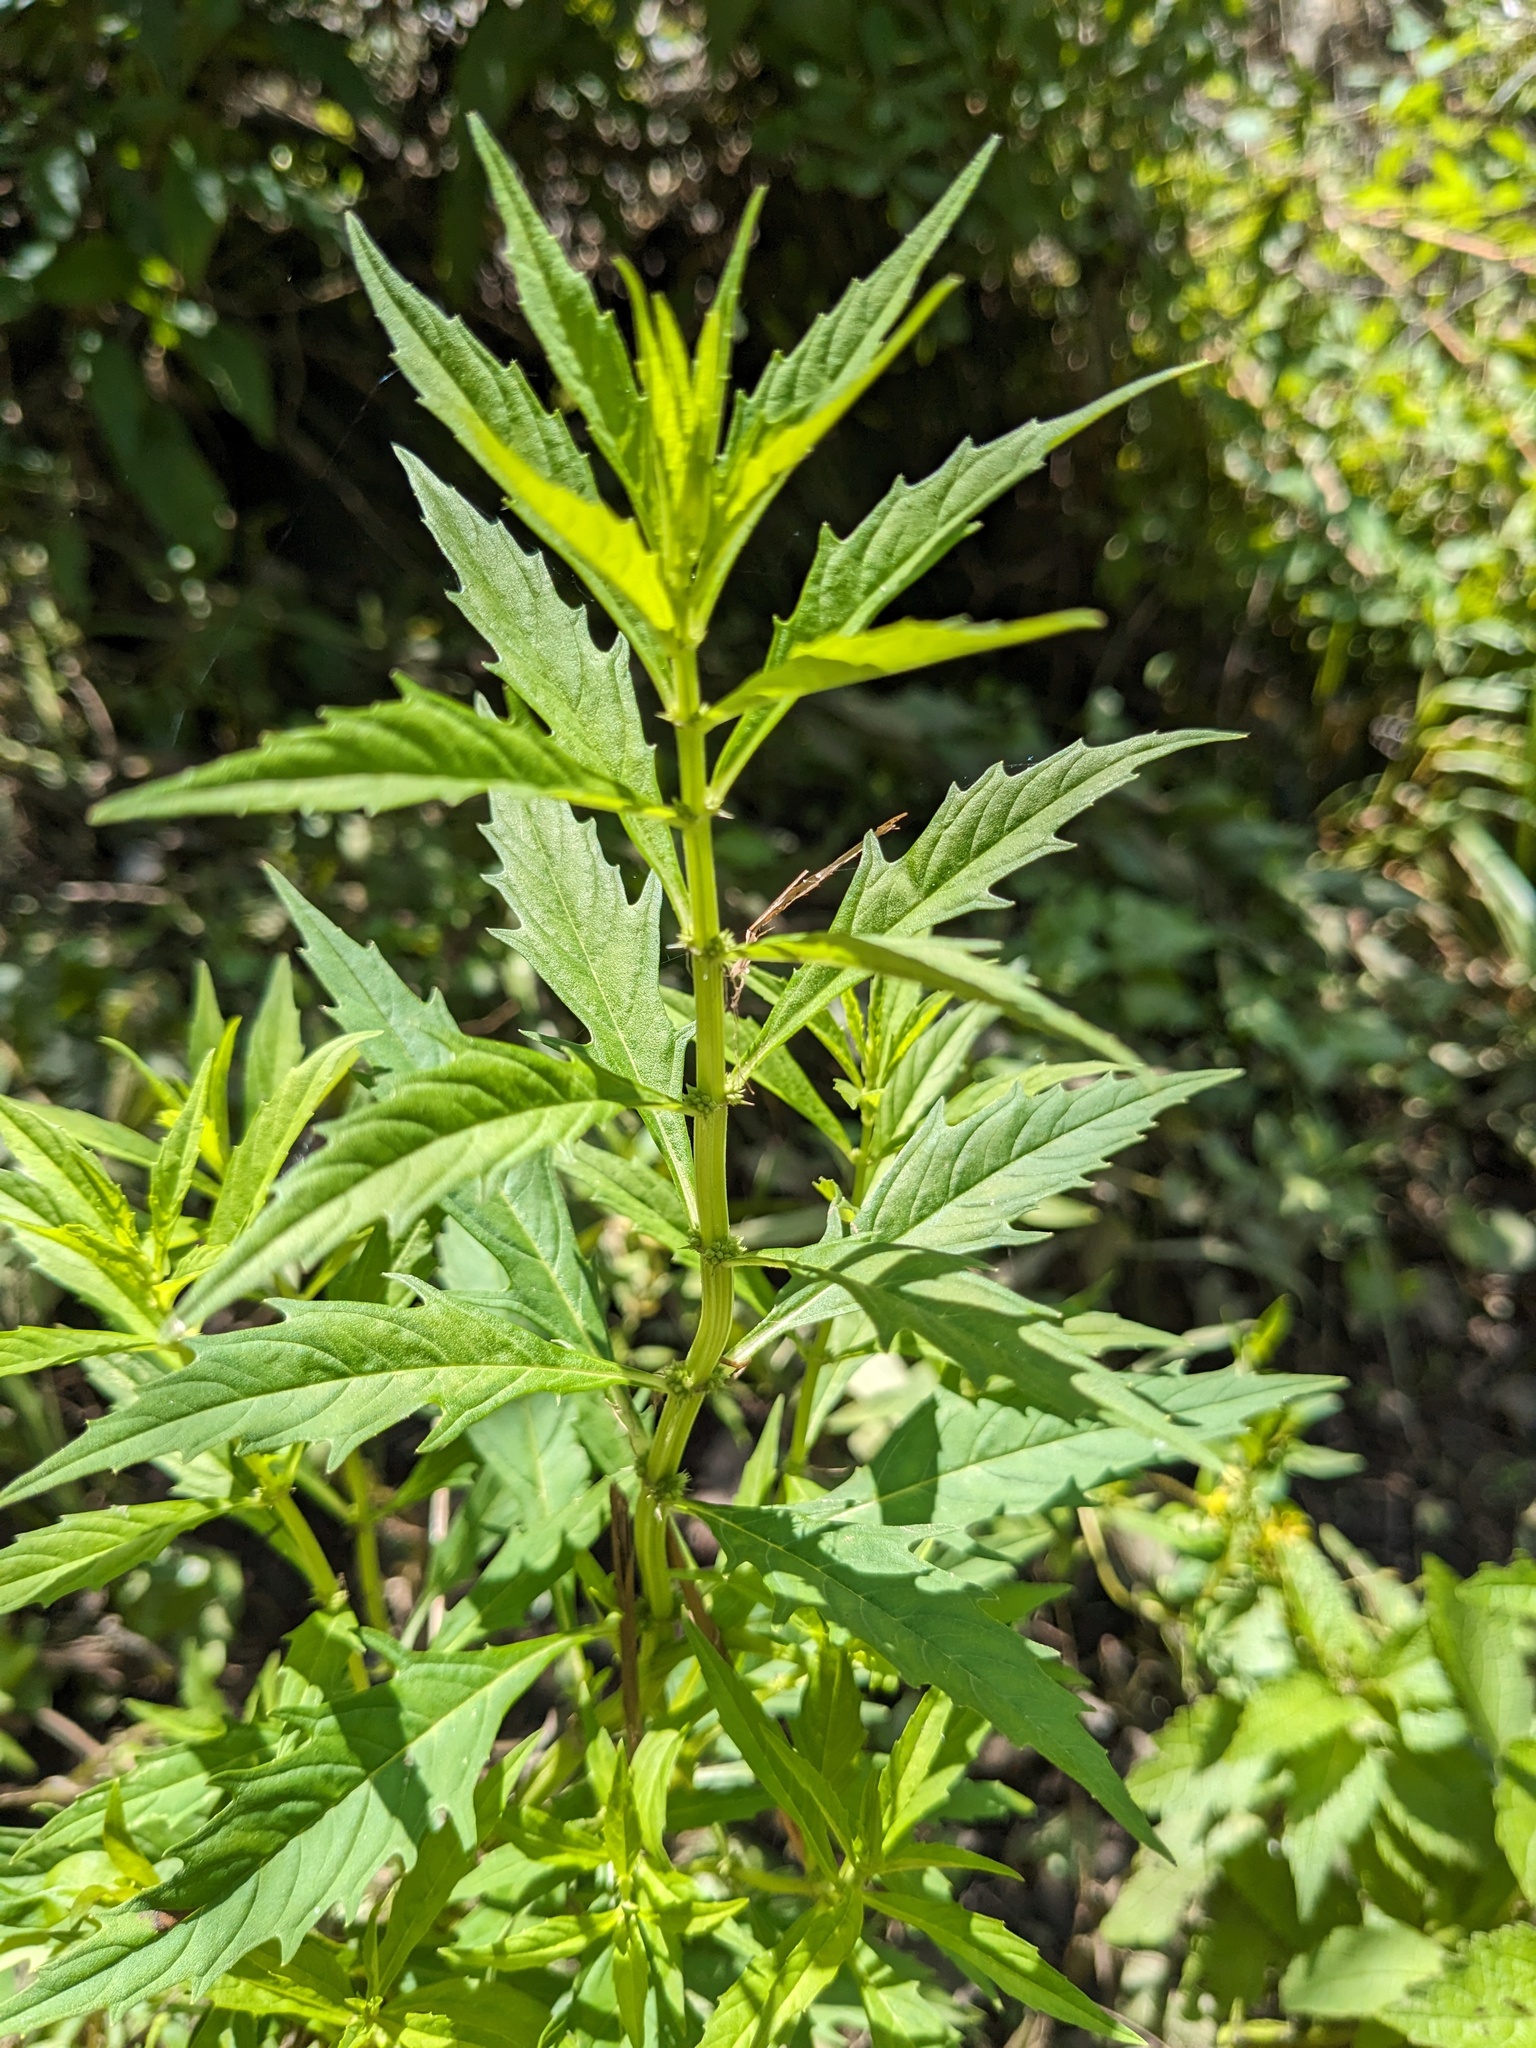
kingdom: Plantae
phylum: Tracheophyta
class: Magnoliopsida
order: Lamiales
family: Lamiaceae
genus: Lycopus
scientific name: Lycopus americanus
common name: American bugleweed
